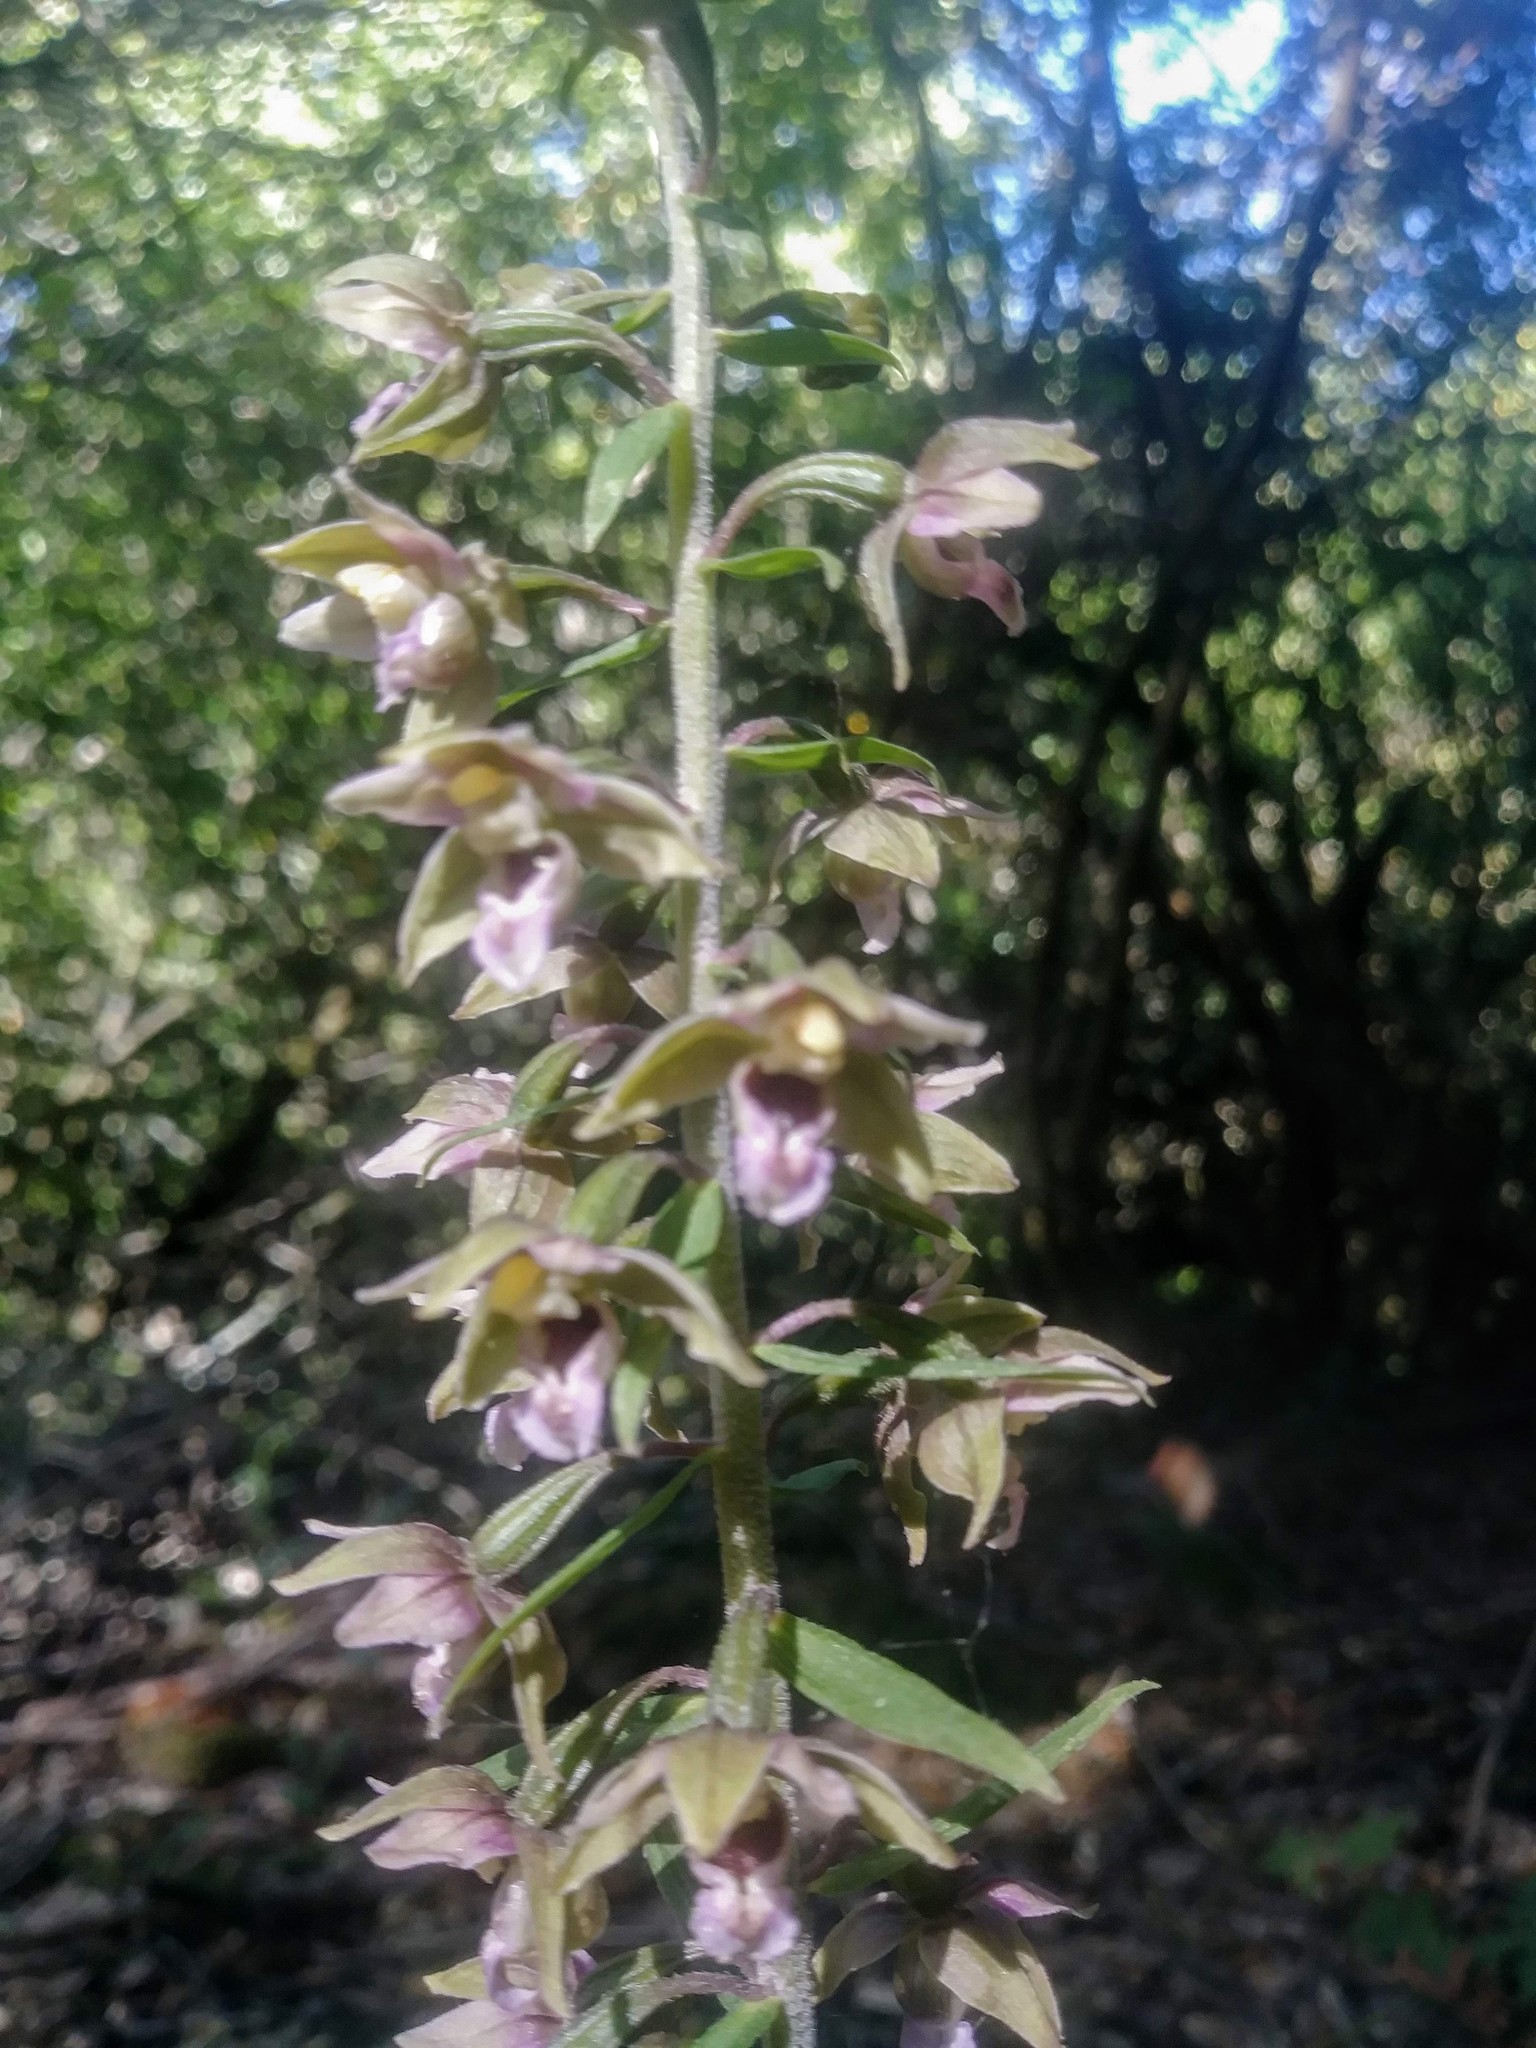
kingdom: Plantae
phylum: Tracheophyta
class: Liliopsida
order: Asparagales
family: Orchidaceae
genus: Epipactis
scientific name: Epipactis helleborine
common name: Broad-leaved helleborine
